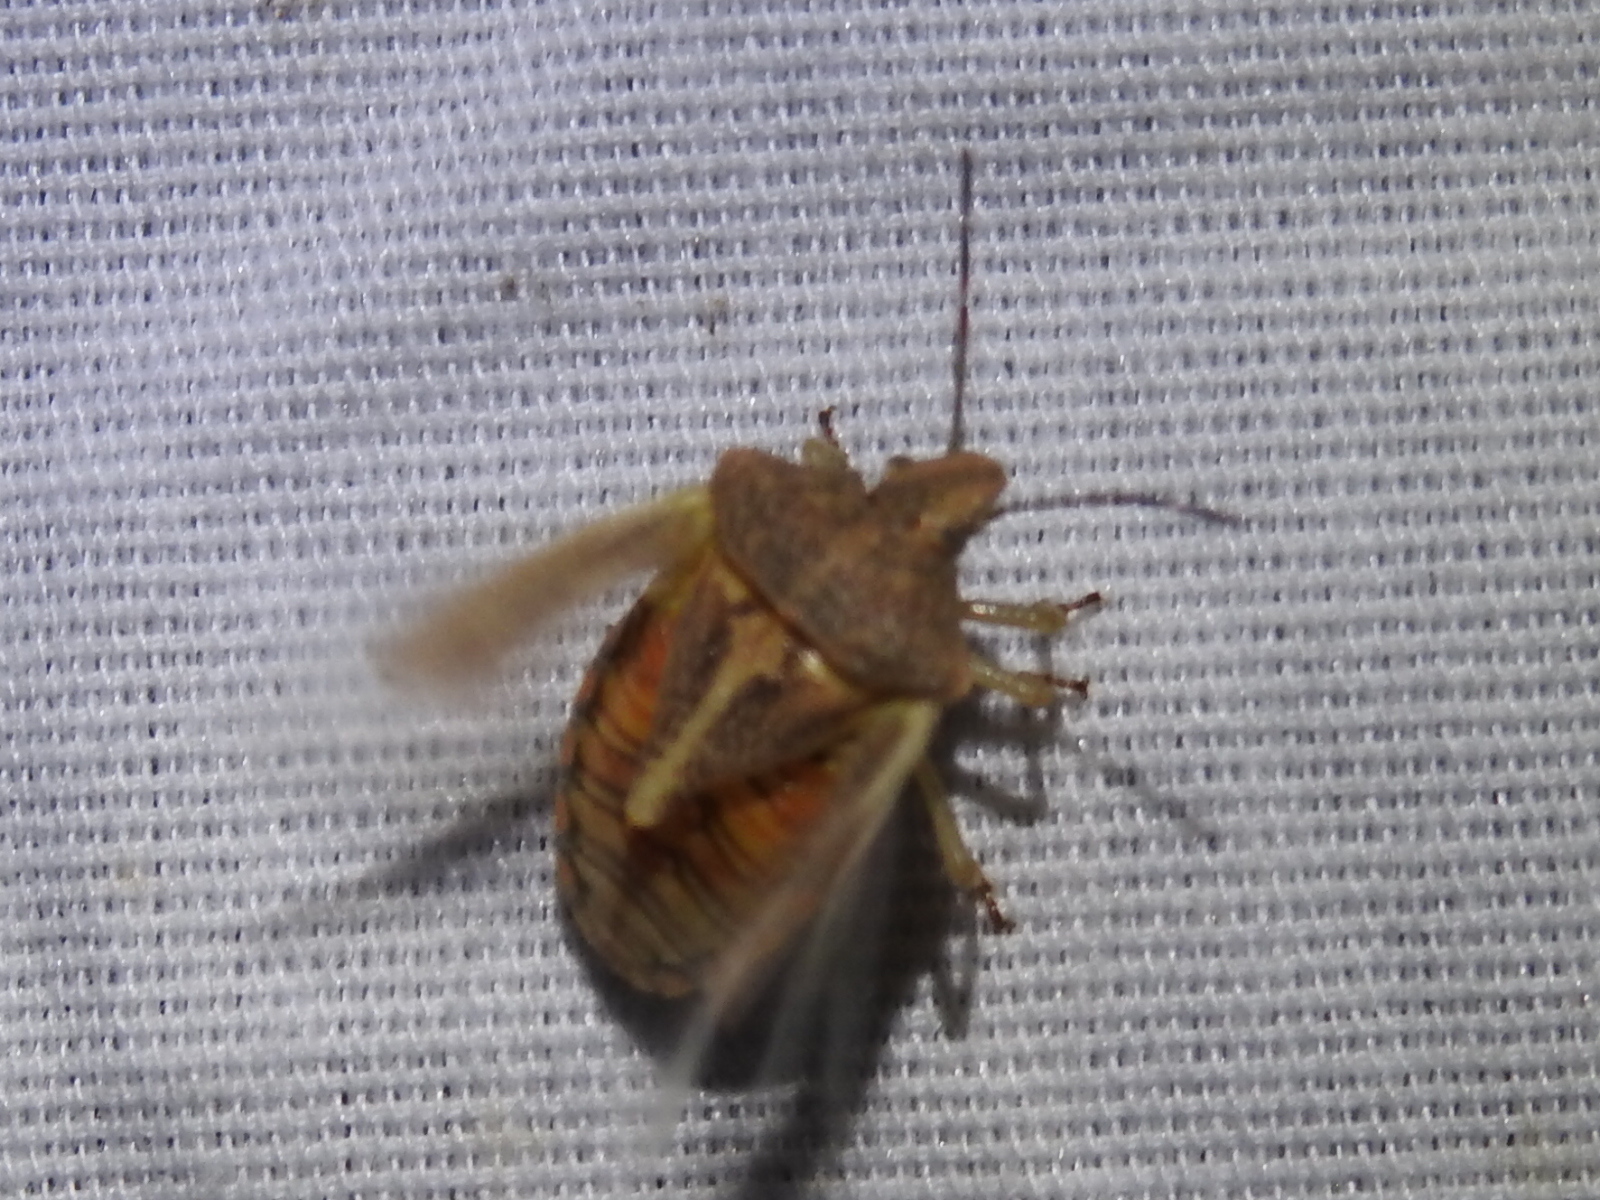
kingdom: Animalia
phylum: Arthropoda
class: Insecta
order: Hemiptera
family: Pentatomidae
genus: Thyanta
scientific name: Thyanta accerra
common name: Stink bug
